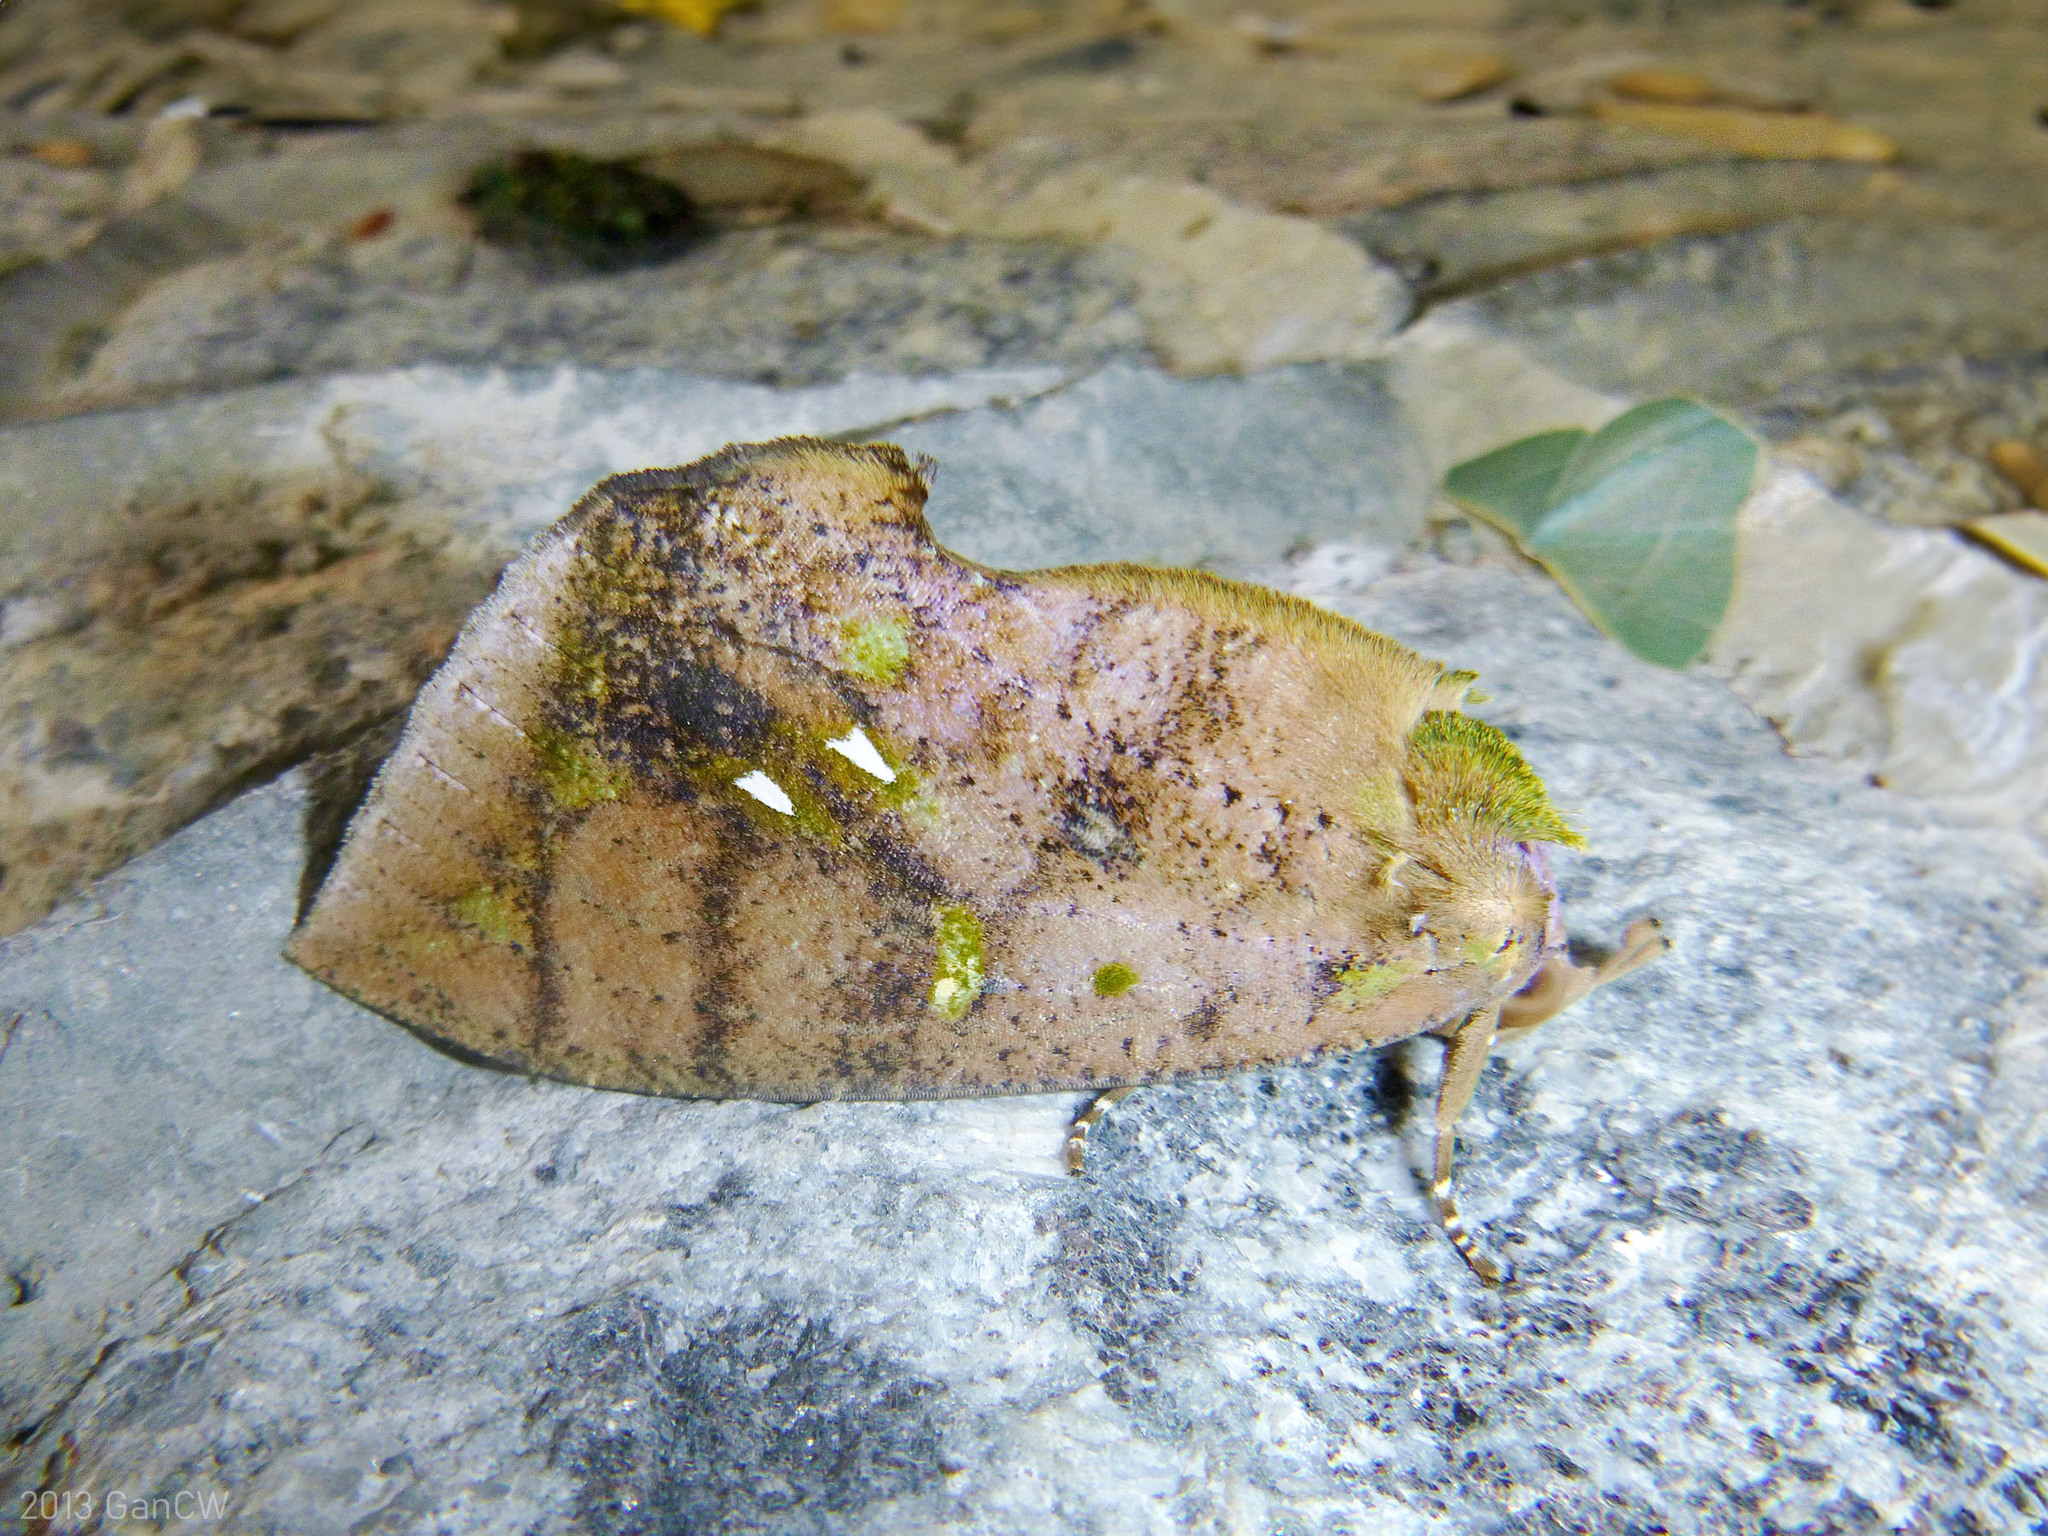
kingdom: Animalia
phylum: Arthropoda
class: Insecta
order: Lepidoptera
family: Erebidae
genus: Eudocima
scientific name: Eudocima discrepans
